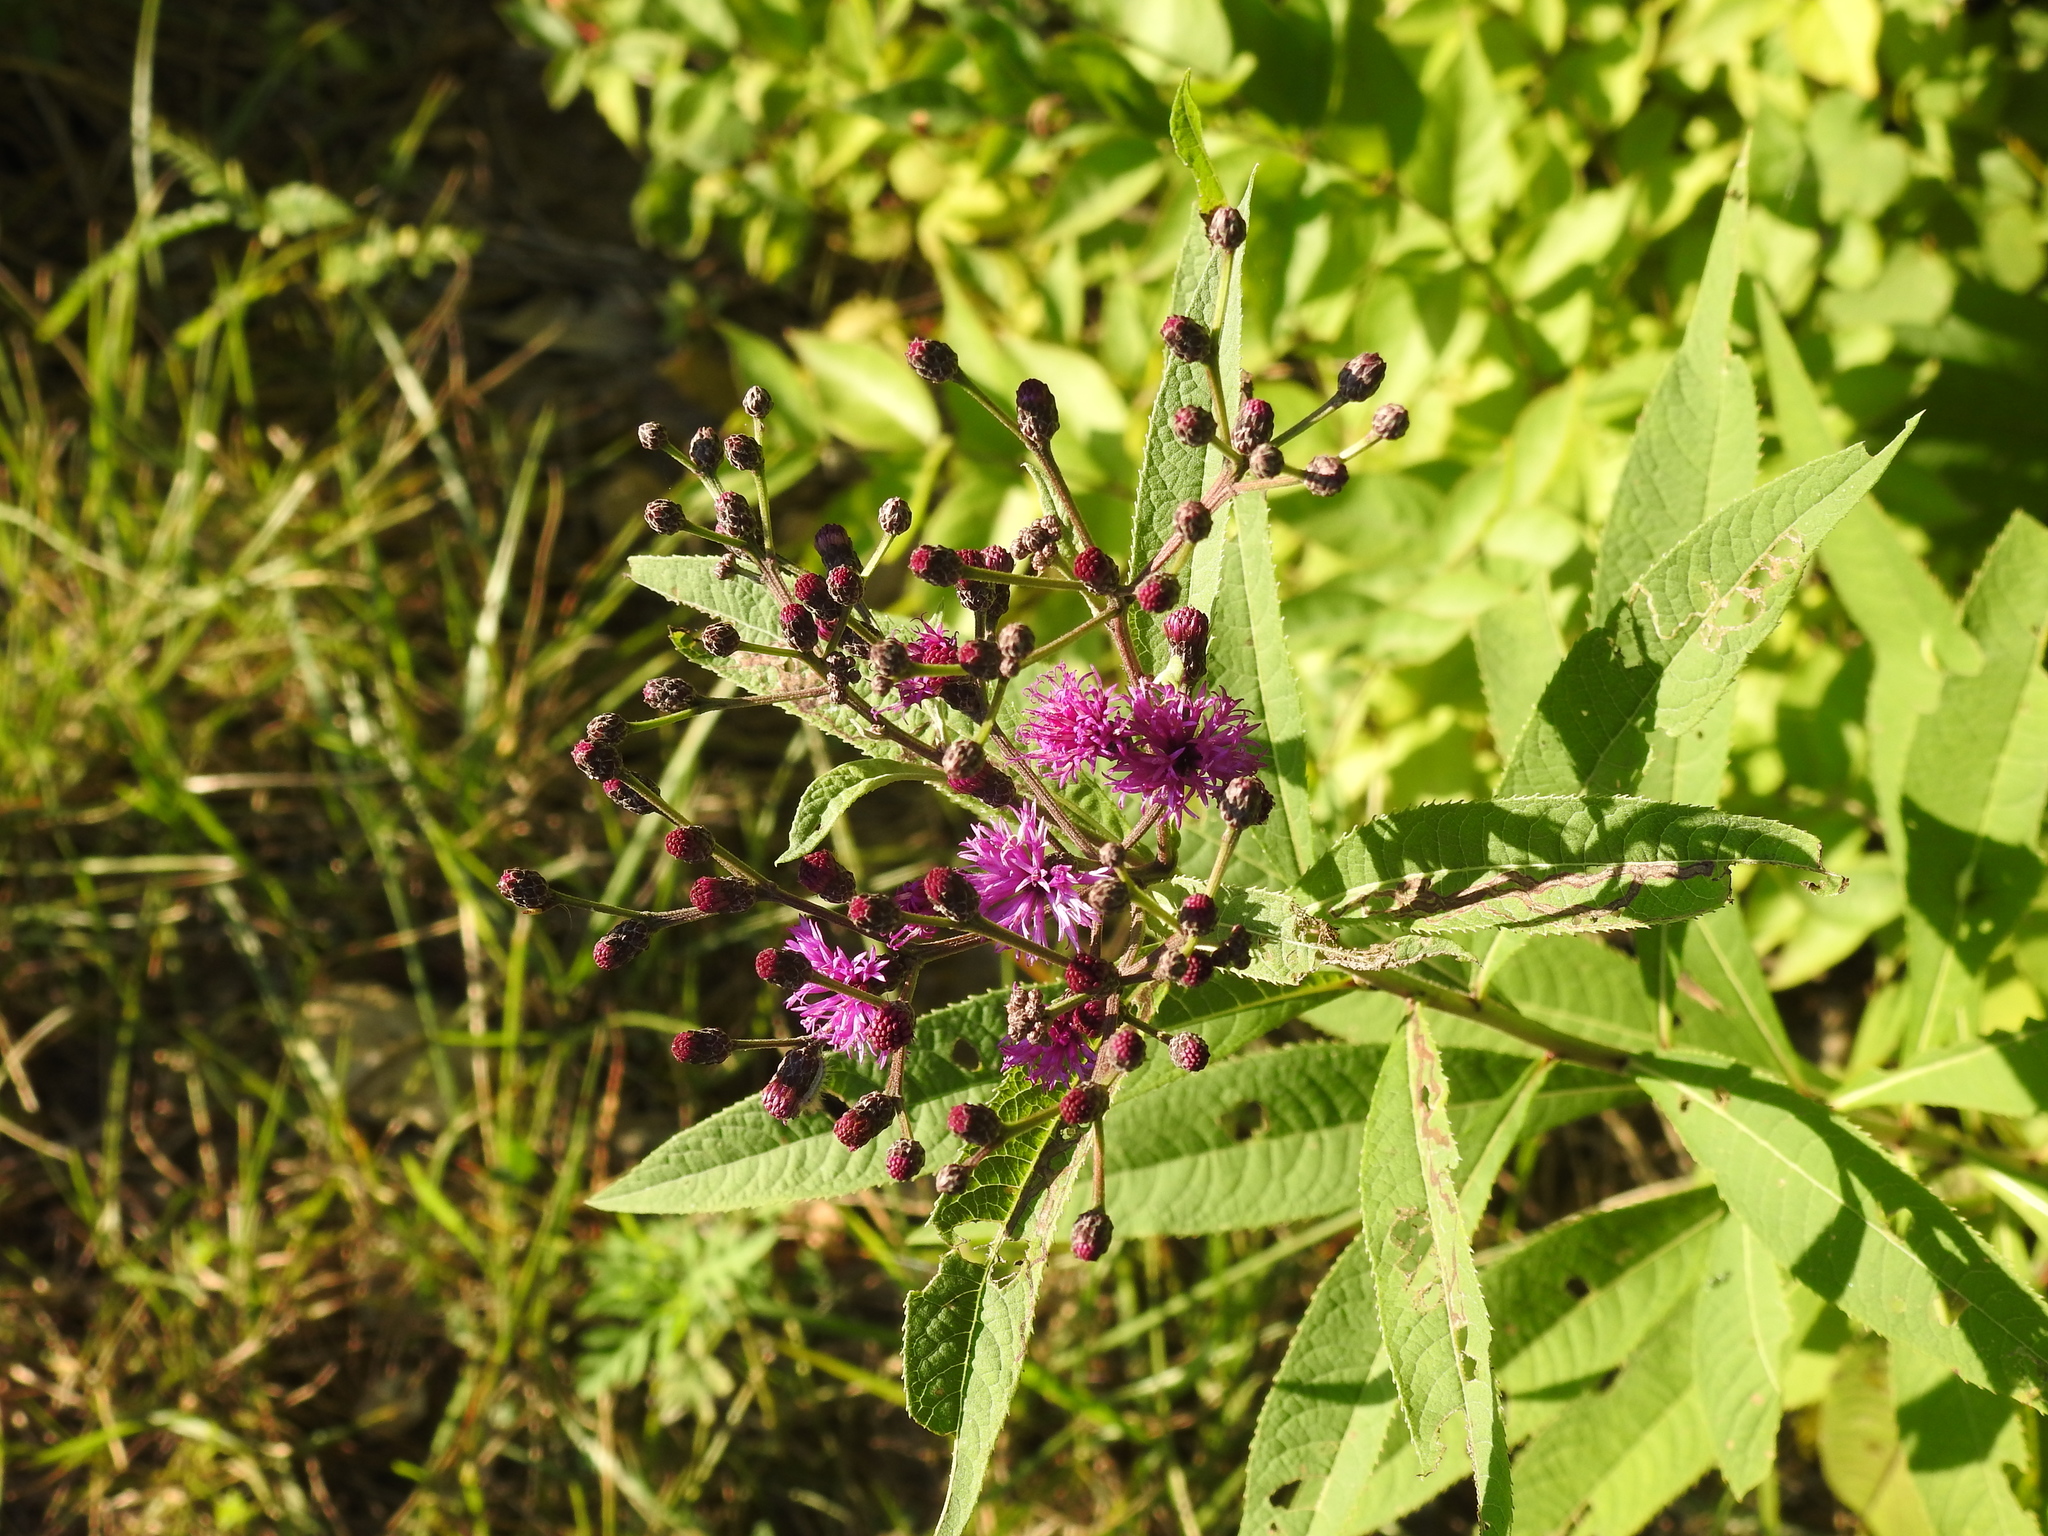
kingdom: Plantae
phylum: Tracheophyta
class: Magnoliopsida
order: Asterales
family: Asteraceae
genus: Vernonia
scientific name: Vernonia gigantea
